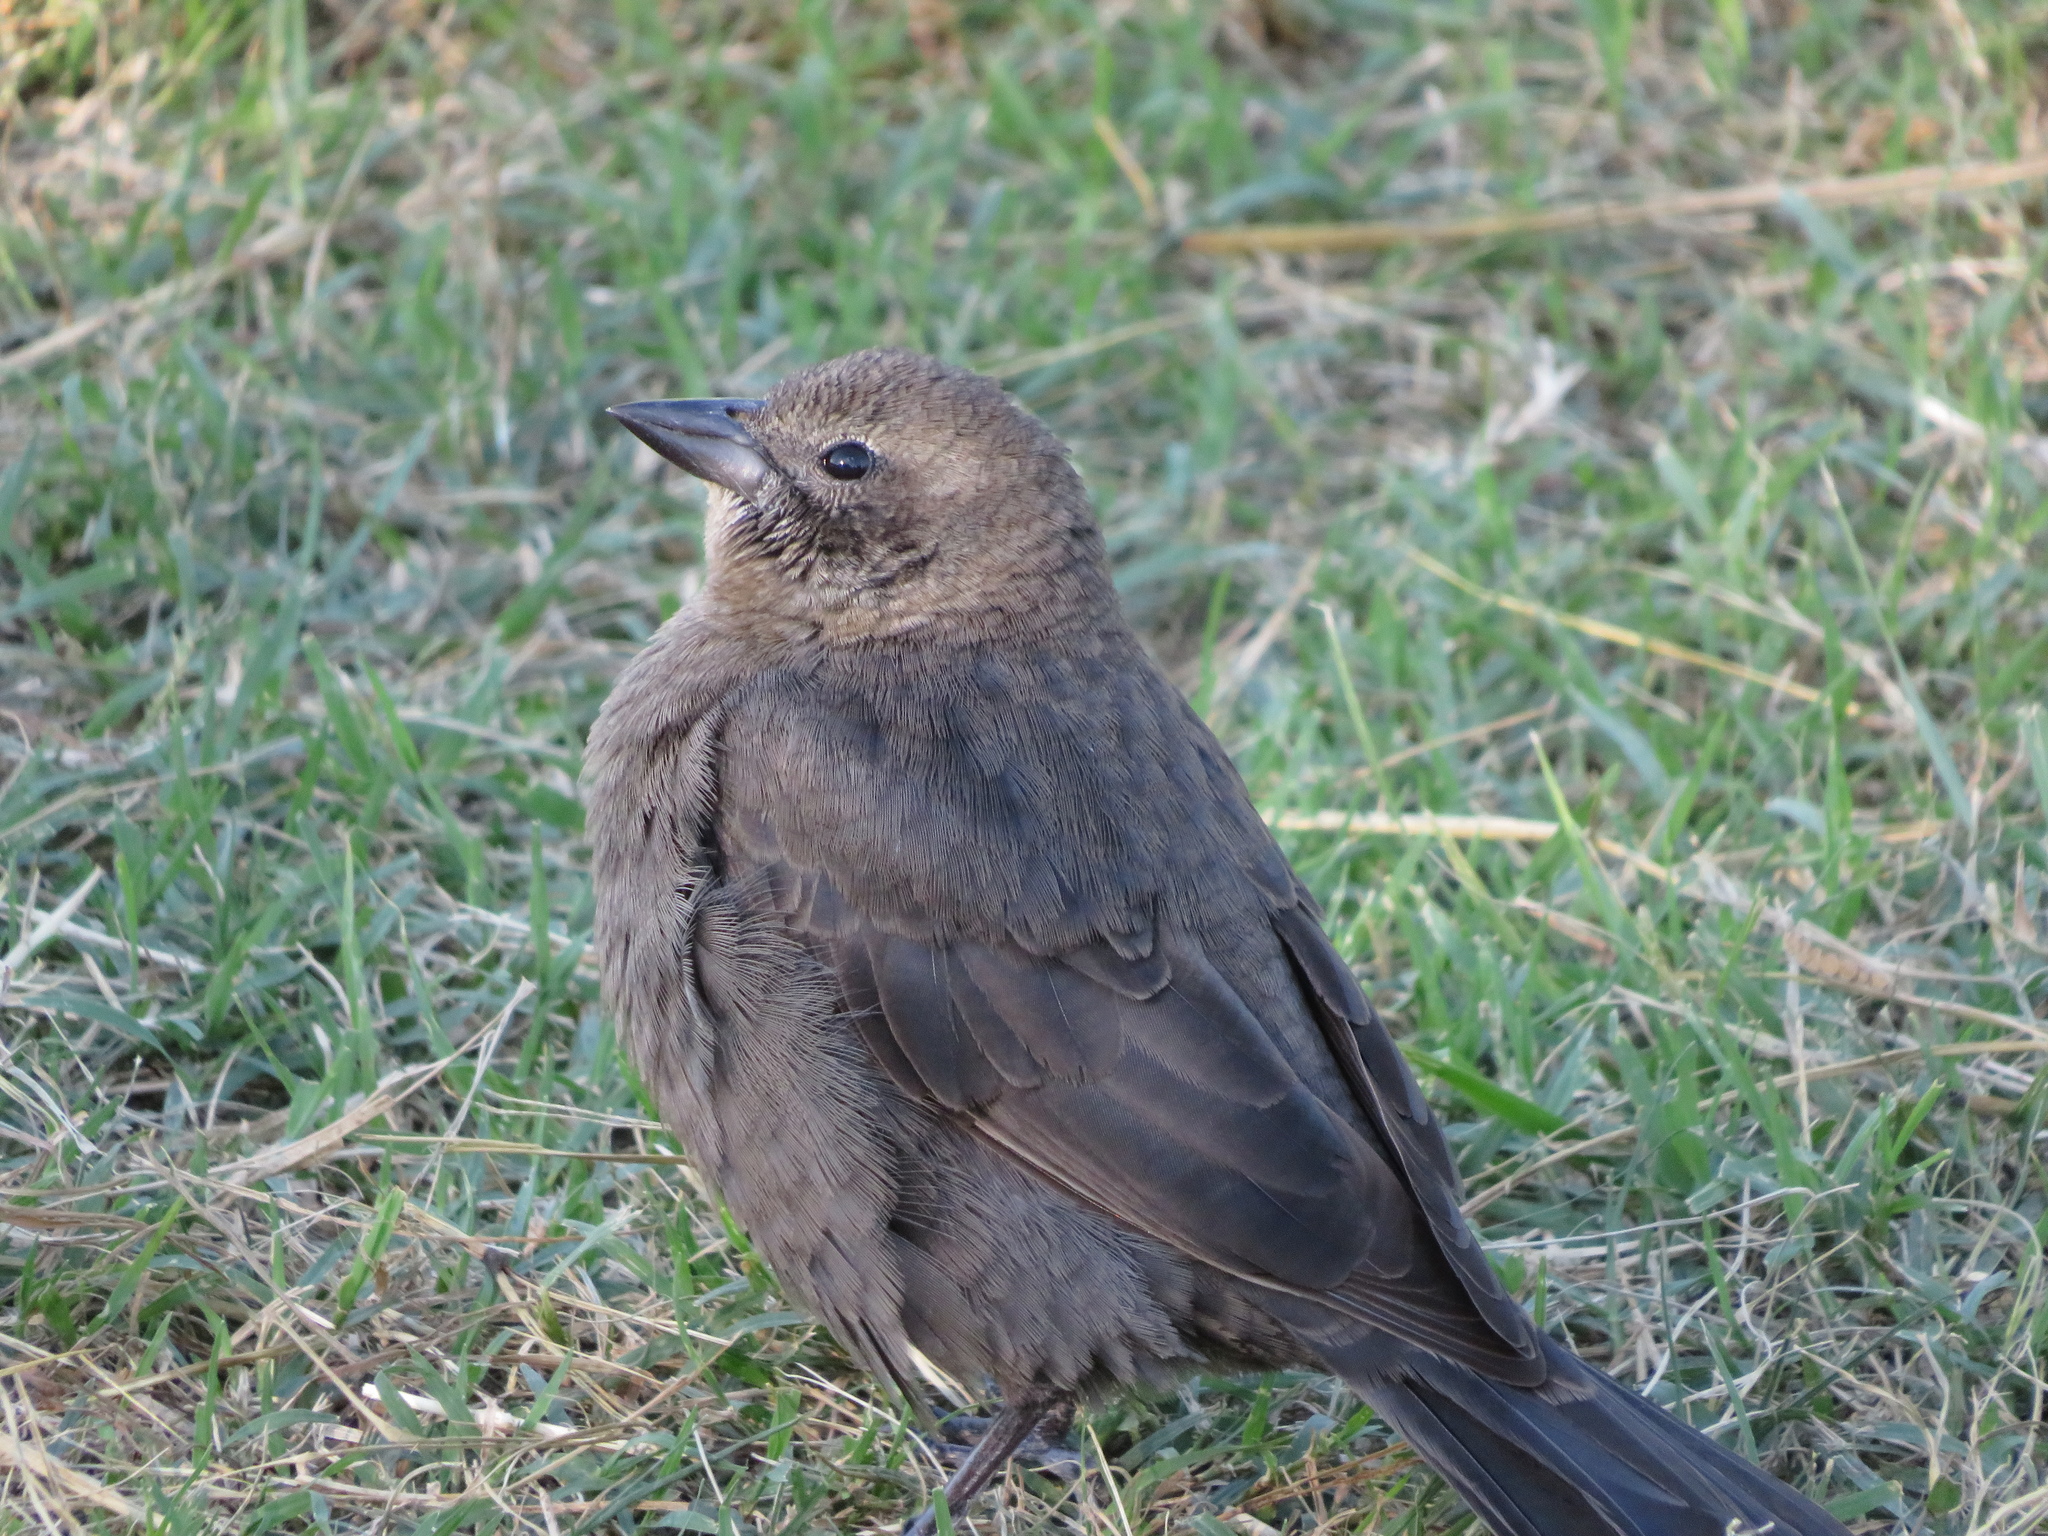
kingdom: Animalia
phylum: Chordata
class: Aves
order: Passeriformes
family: Icteridae
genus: Molothrus
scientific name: Molothrus bonariensis
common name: Shiny cowbird
